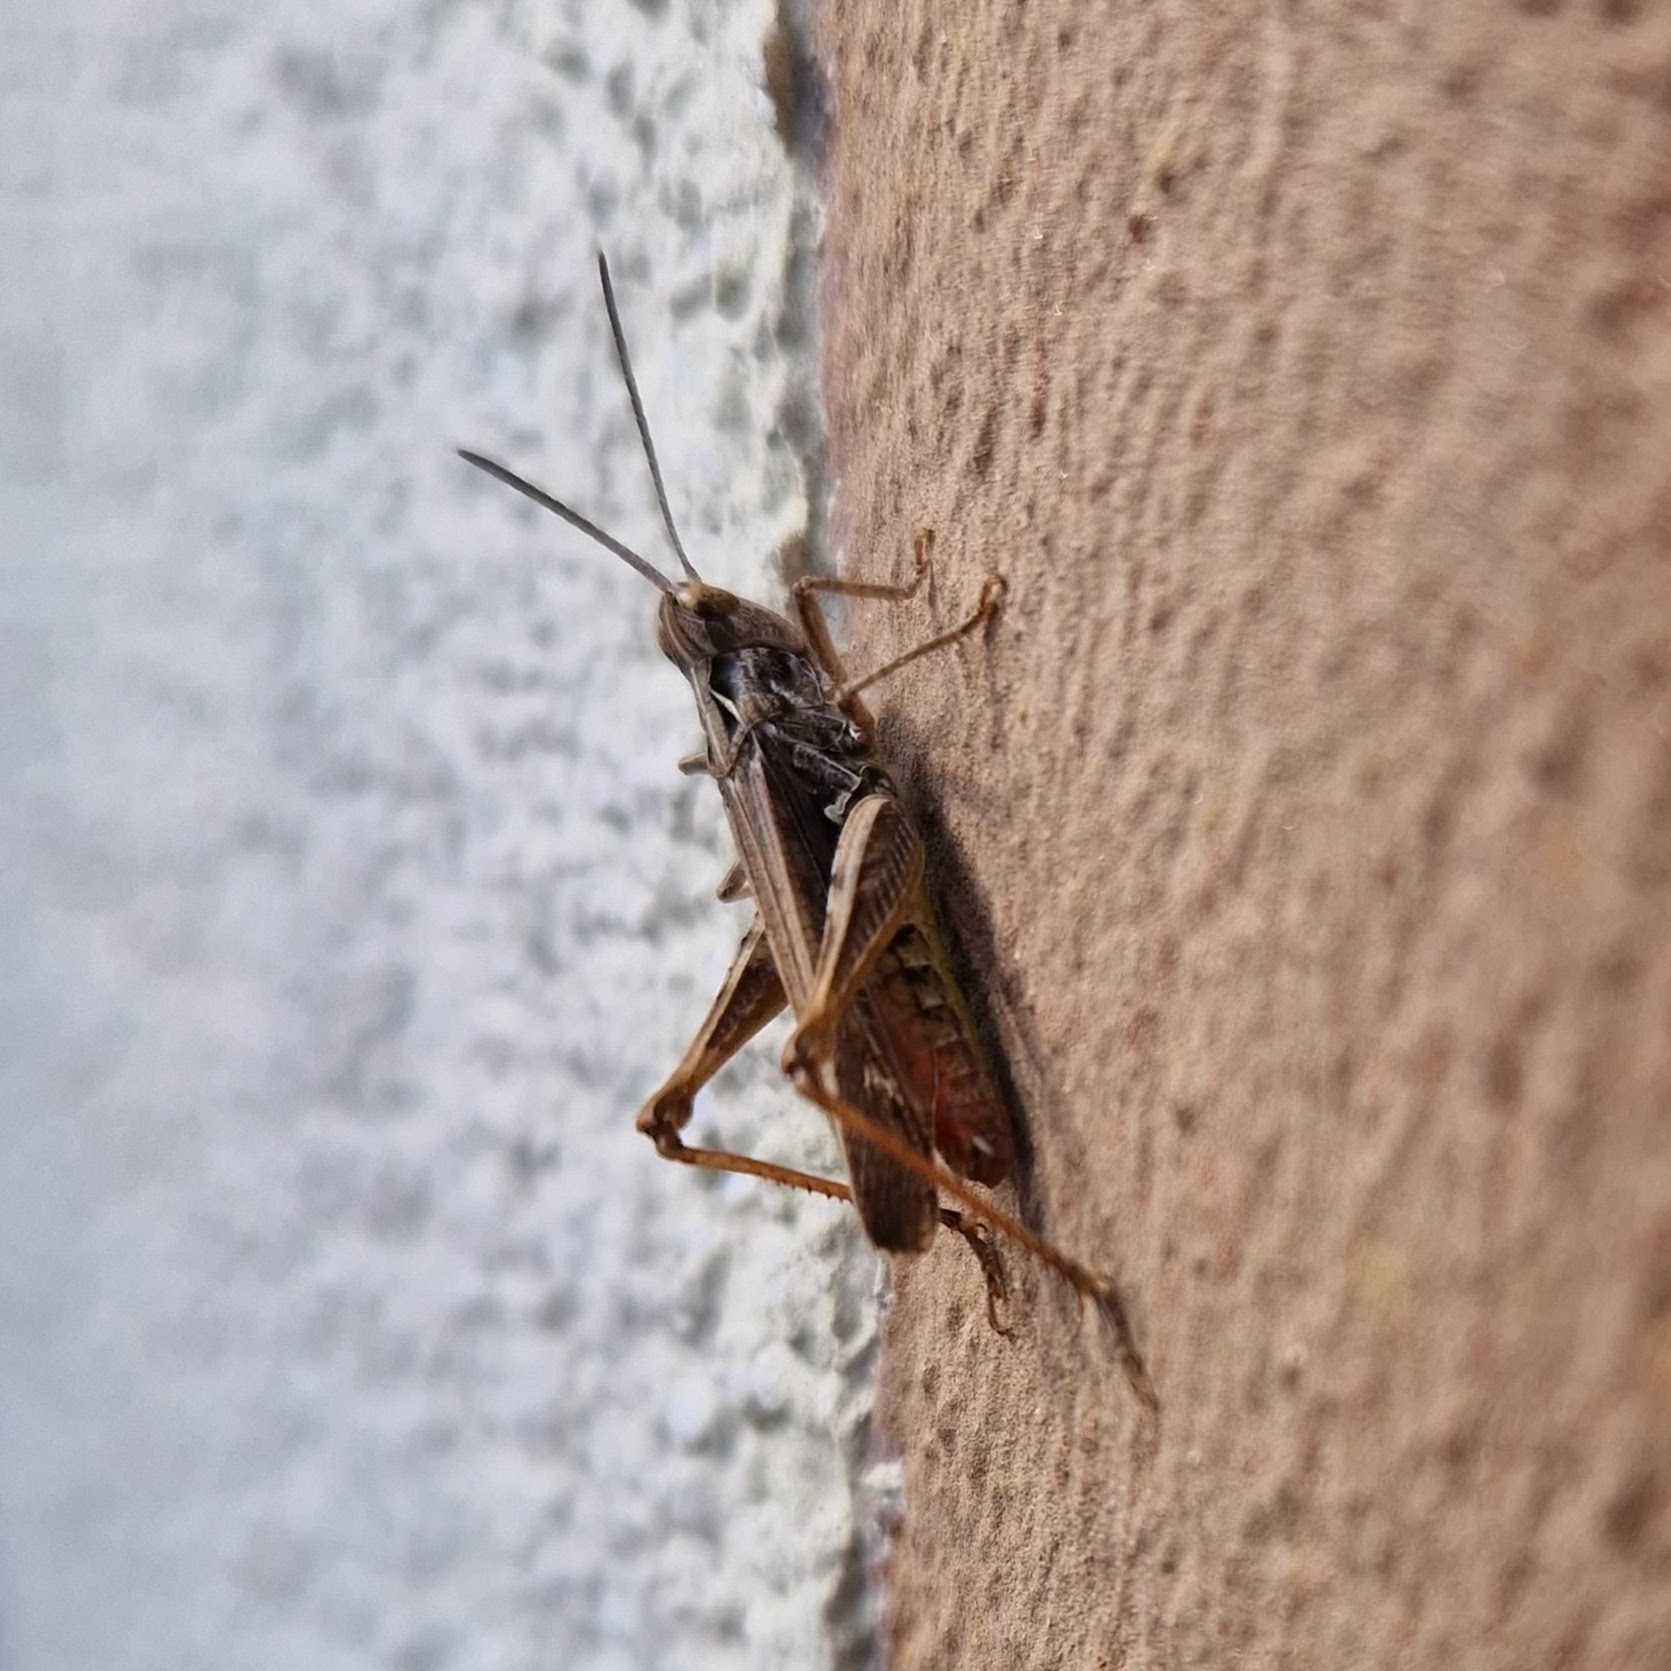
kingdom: Animalia
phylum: Arthropoda
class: Insecta
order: Orthoptera
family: Acrididae
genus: Chorthippus
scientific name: Chorthippus biguttulus
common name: Bow-winged grasshopper
